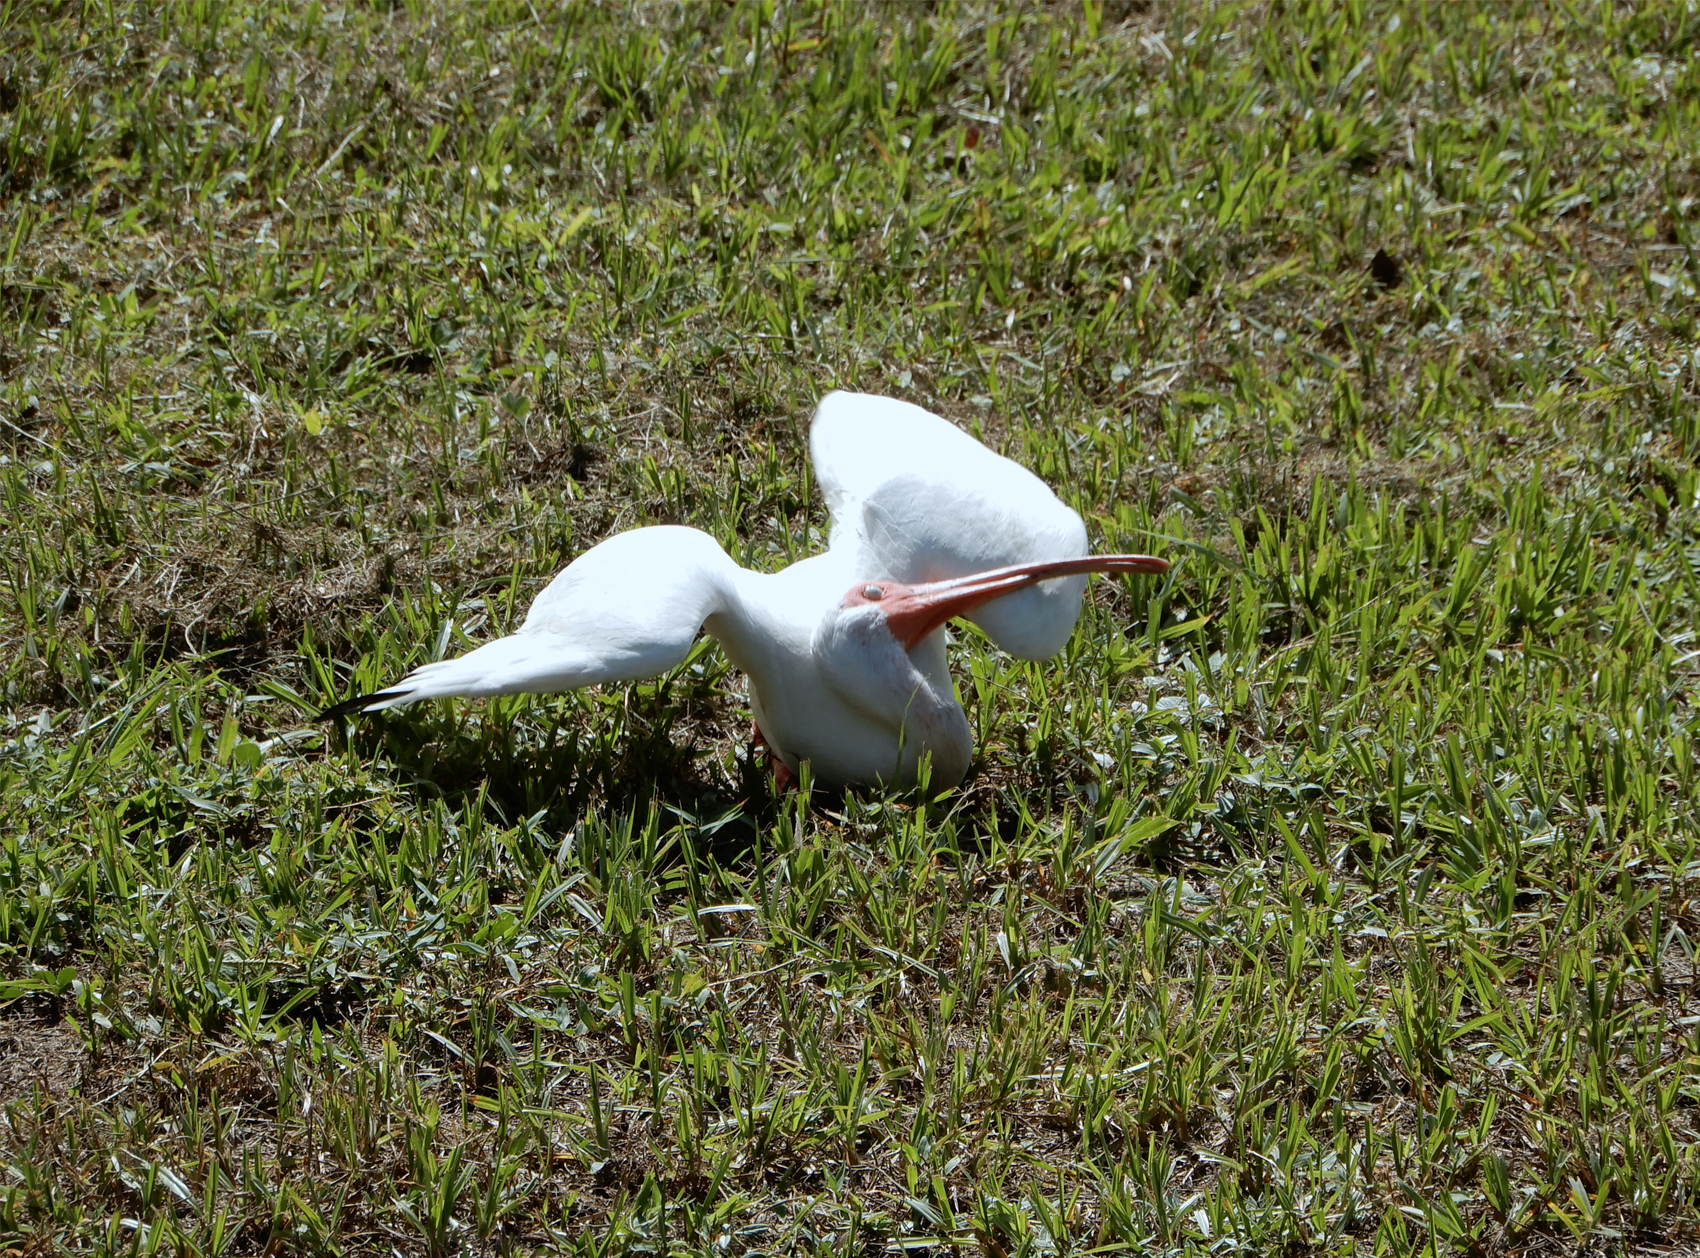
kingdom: Animalia
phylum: Chordata
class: Aves
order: Pelecaniformes
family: Threskiornithidae
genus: Eudocimus
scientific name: Eudocimus albus
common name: White ibis
